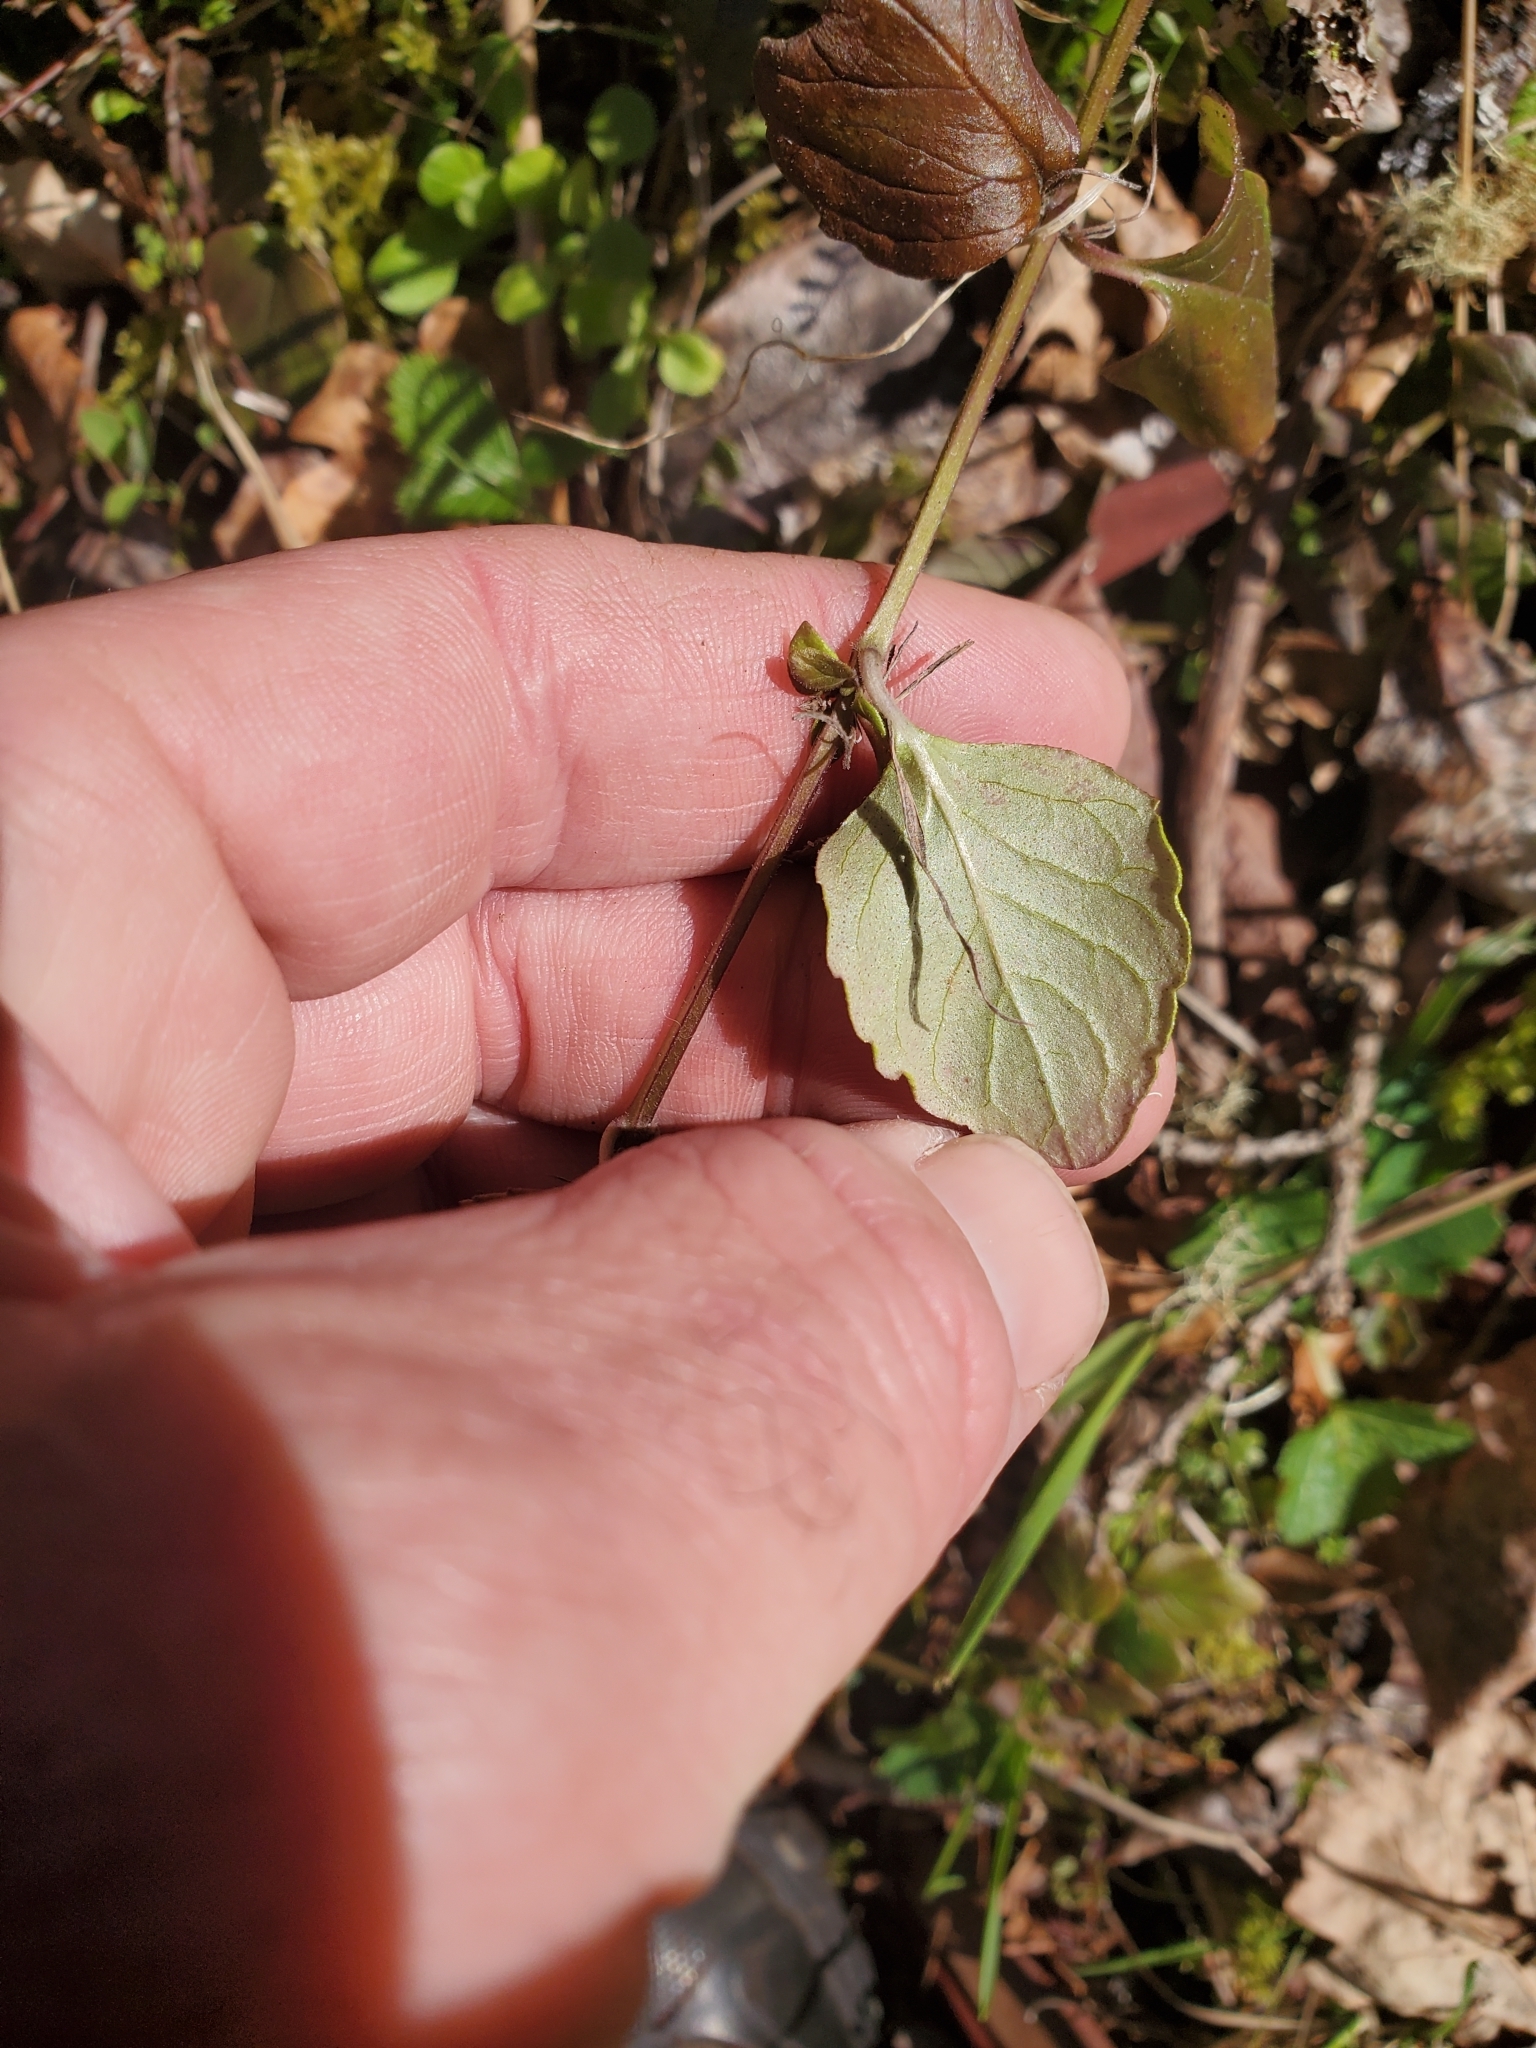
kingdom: Plantae
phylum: Tracheophyta
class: Magnoliopsida
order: Lamiales
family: Lamiaceae
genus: Micromeria
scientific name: Micromeria douglasii
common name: Yerba buena
